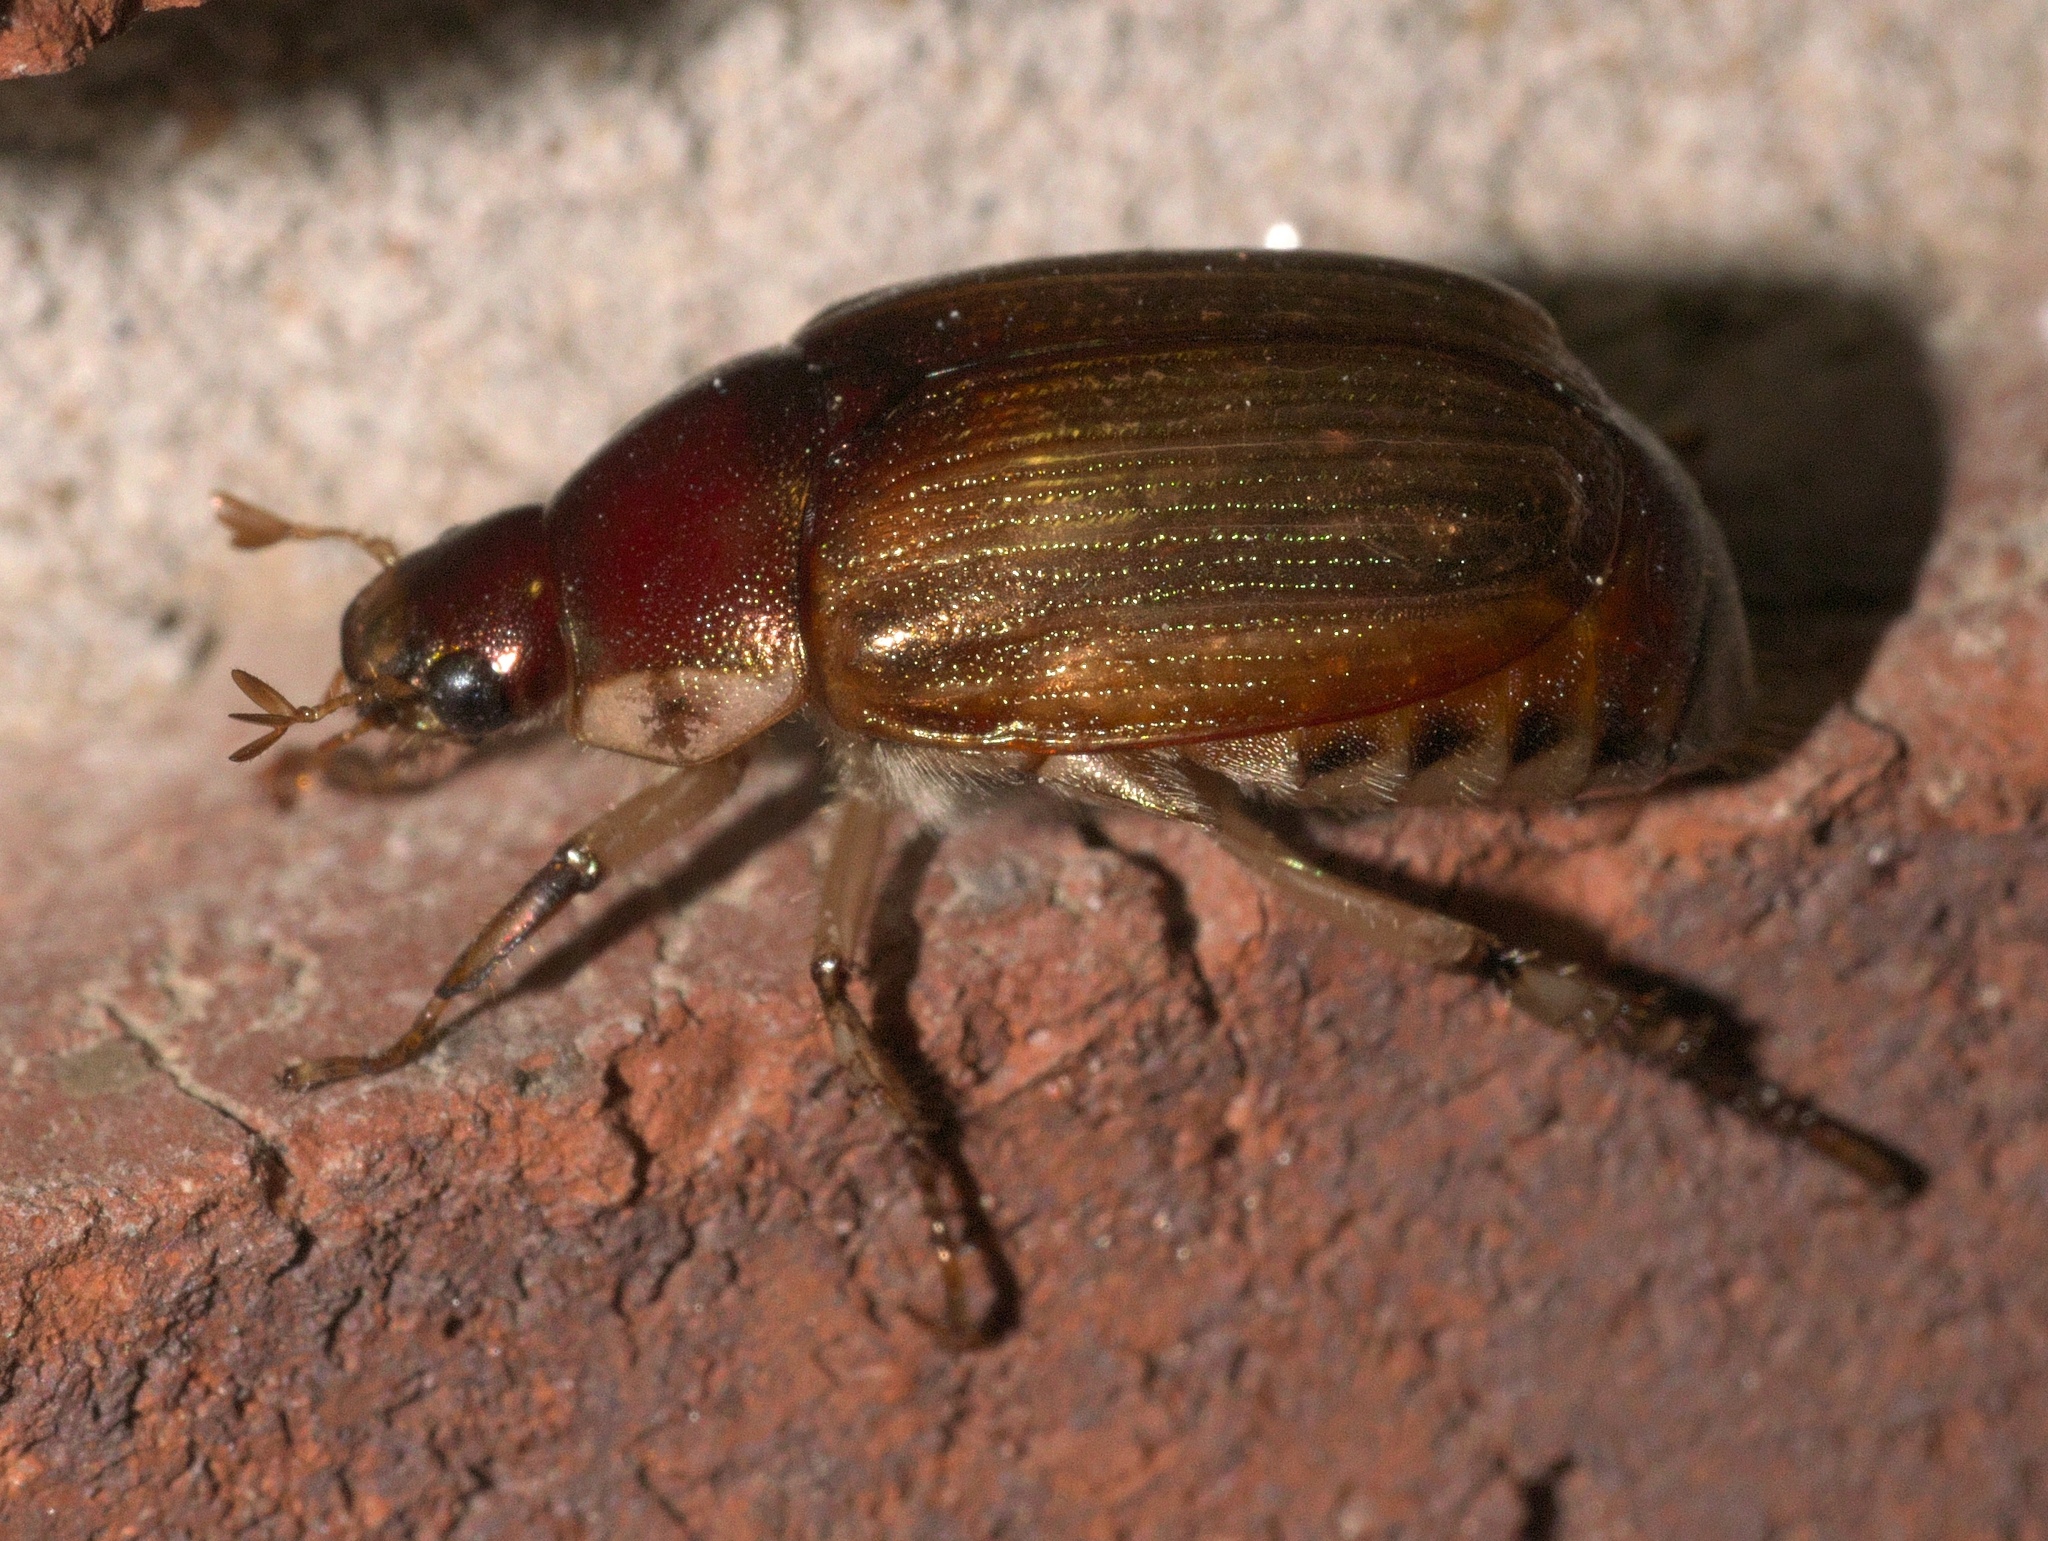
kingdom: Animalia
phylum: Arthropoda
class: Insecta
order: Coleoptera
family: Scarabaeidae
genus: Callistethus
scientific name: Callistethus marginatus
